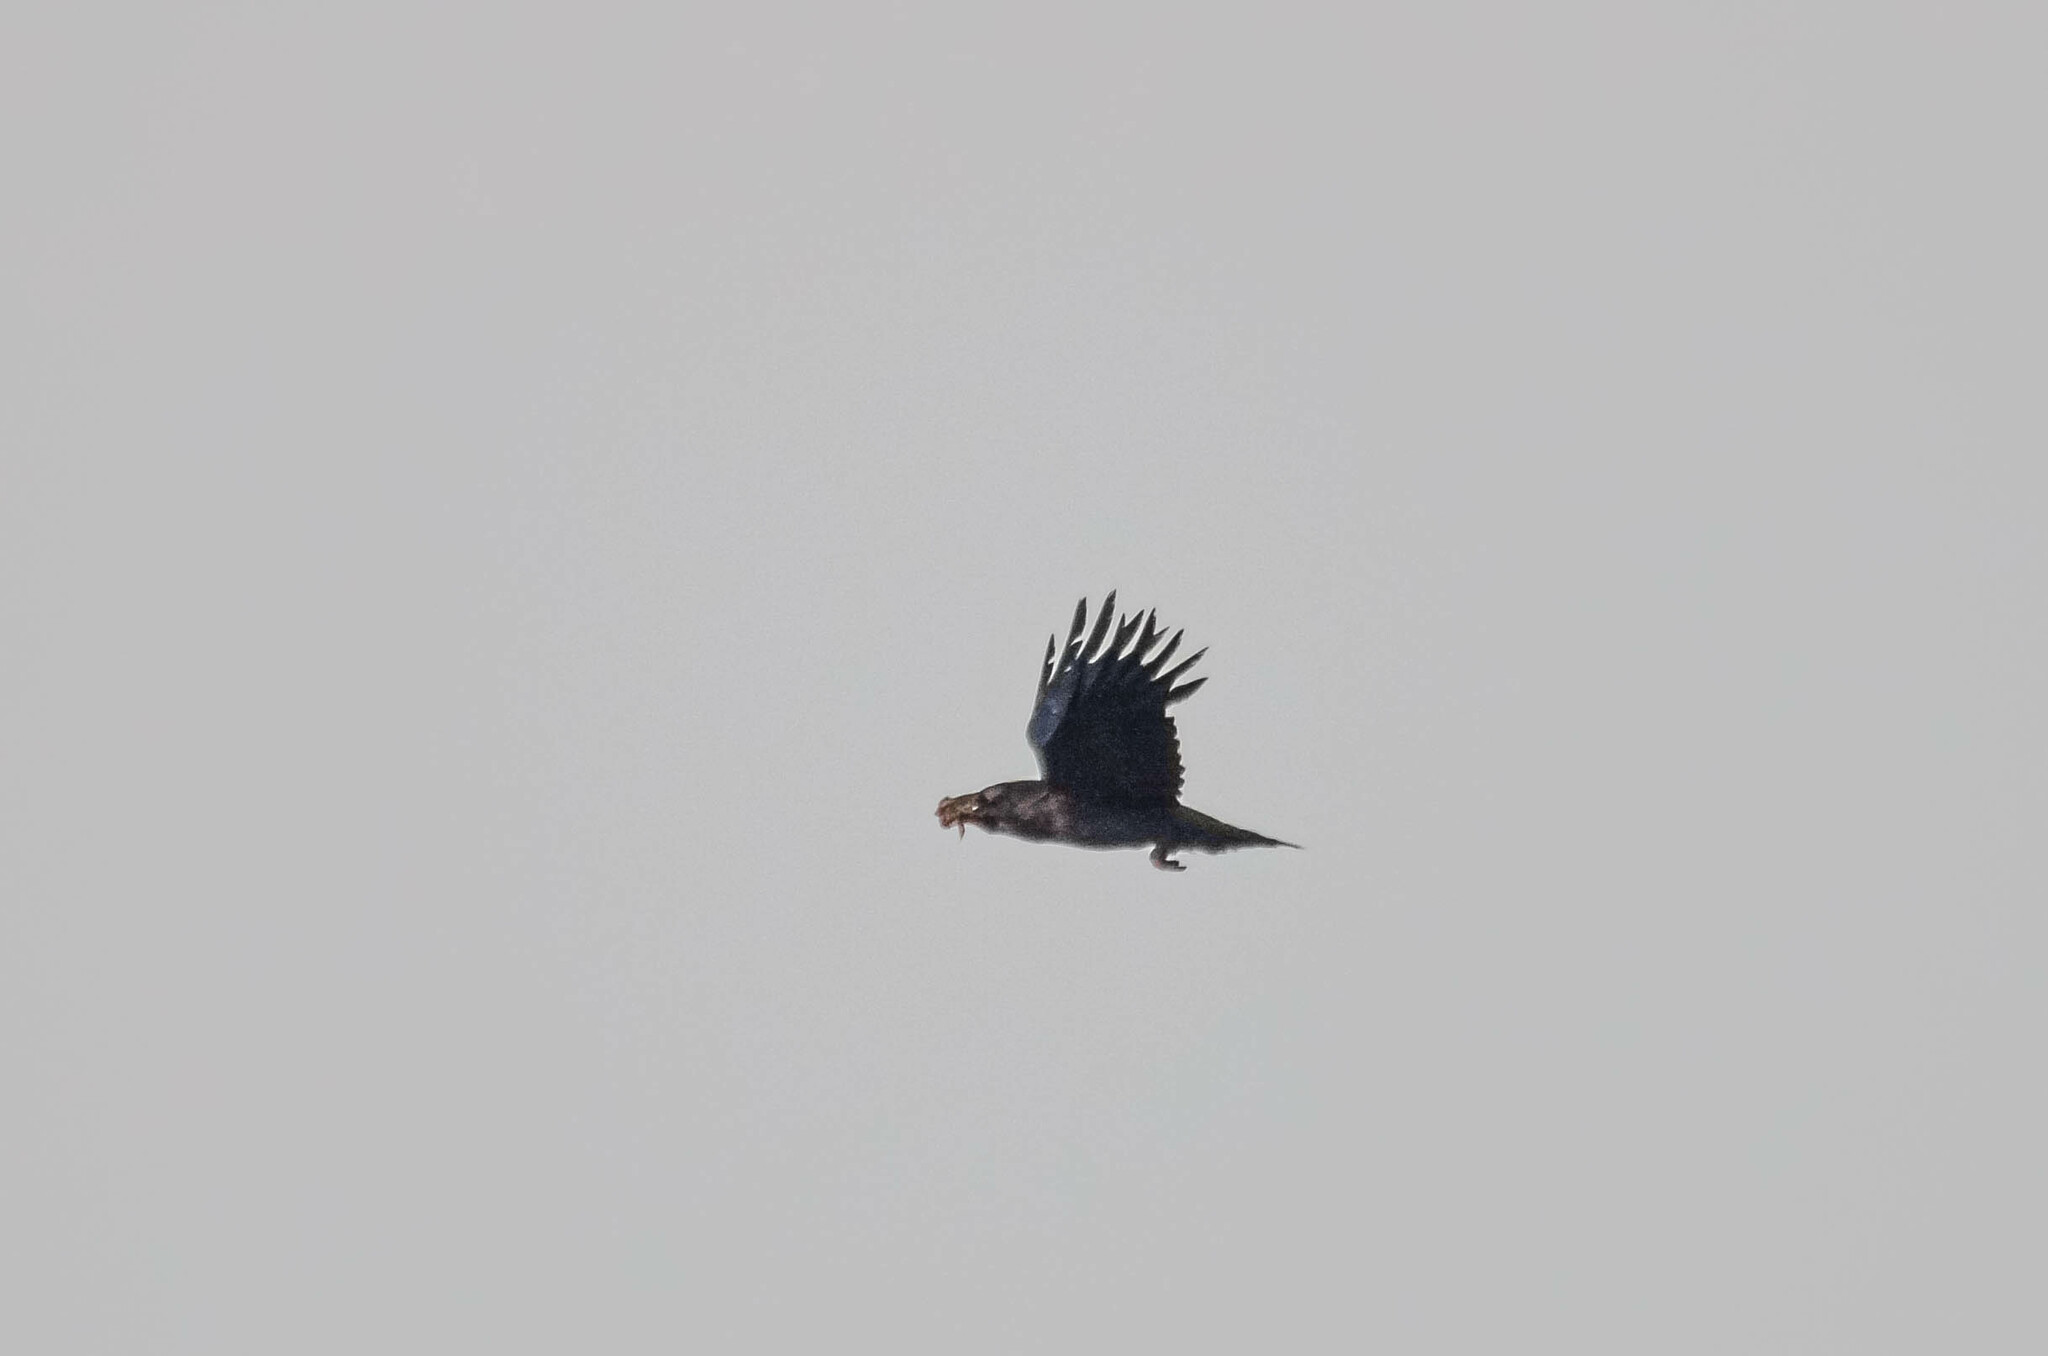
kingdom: Animalia
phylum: Chordata
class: Aves
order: Passeriformes
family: Corvidae
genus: Corvus
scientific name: Corvus corax
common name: Common raven
